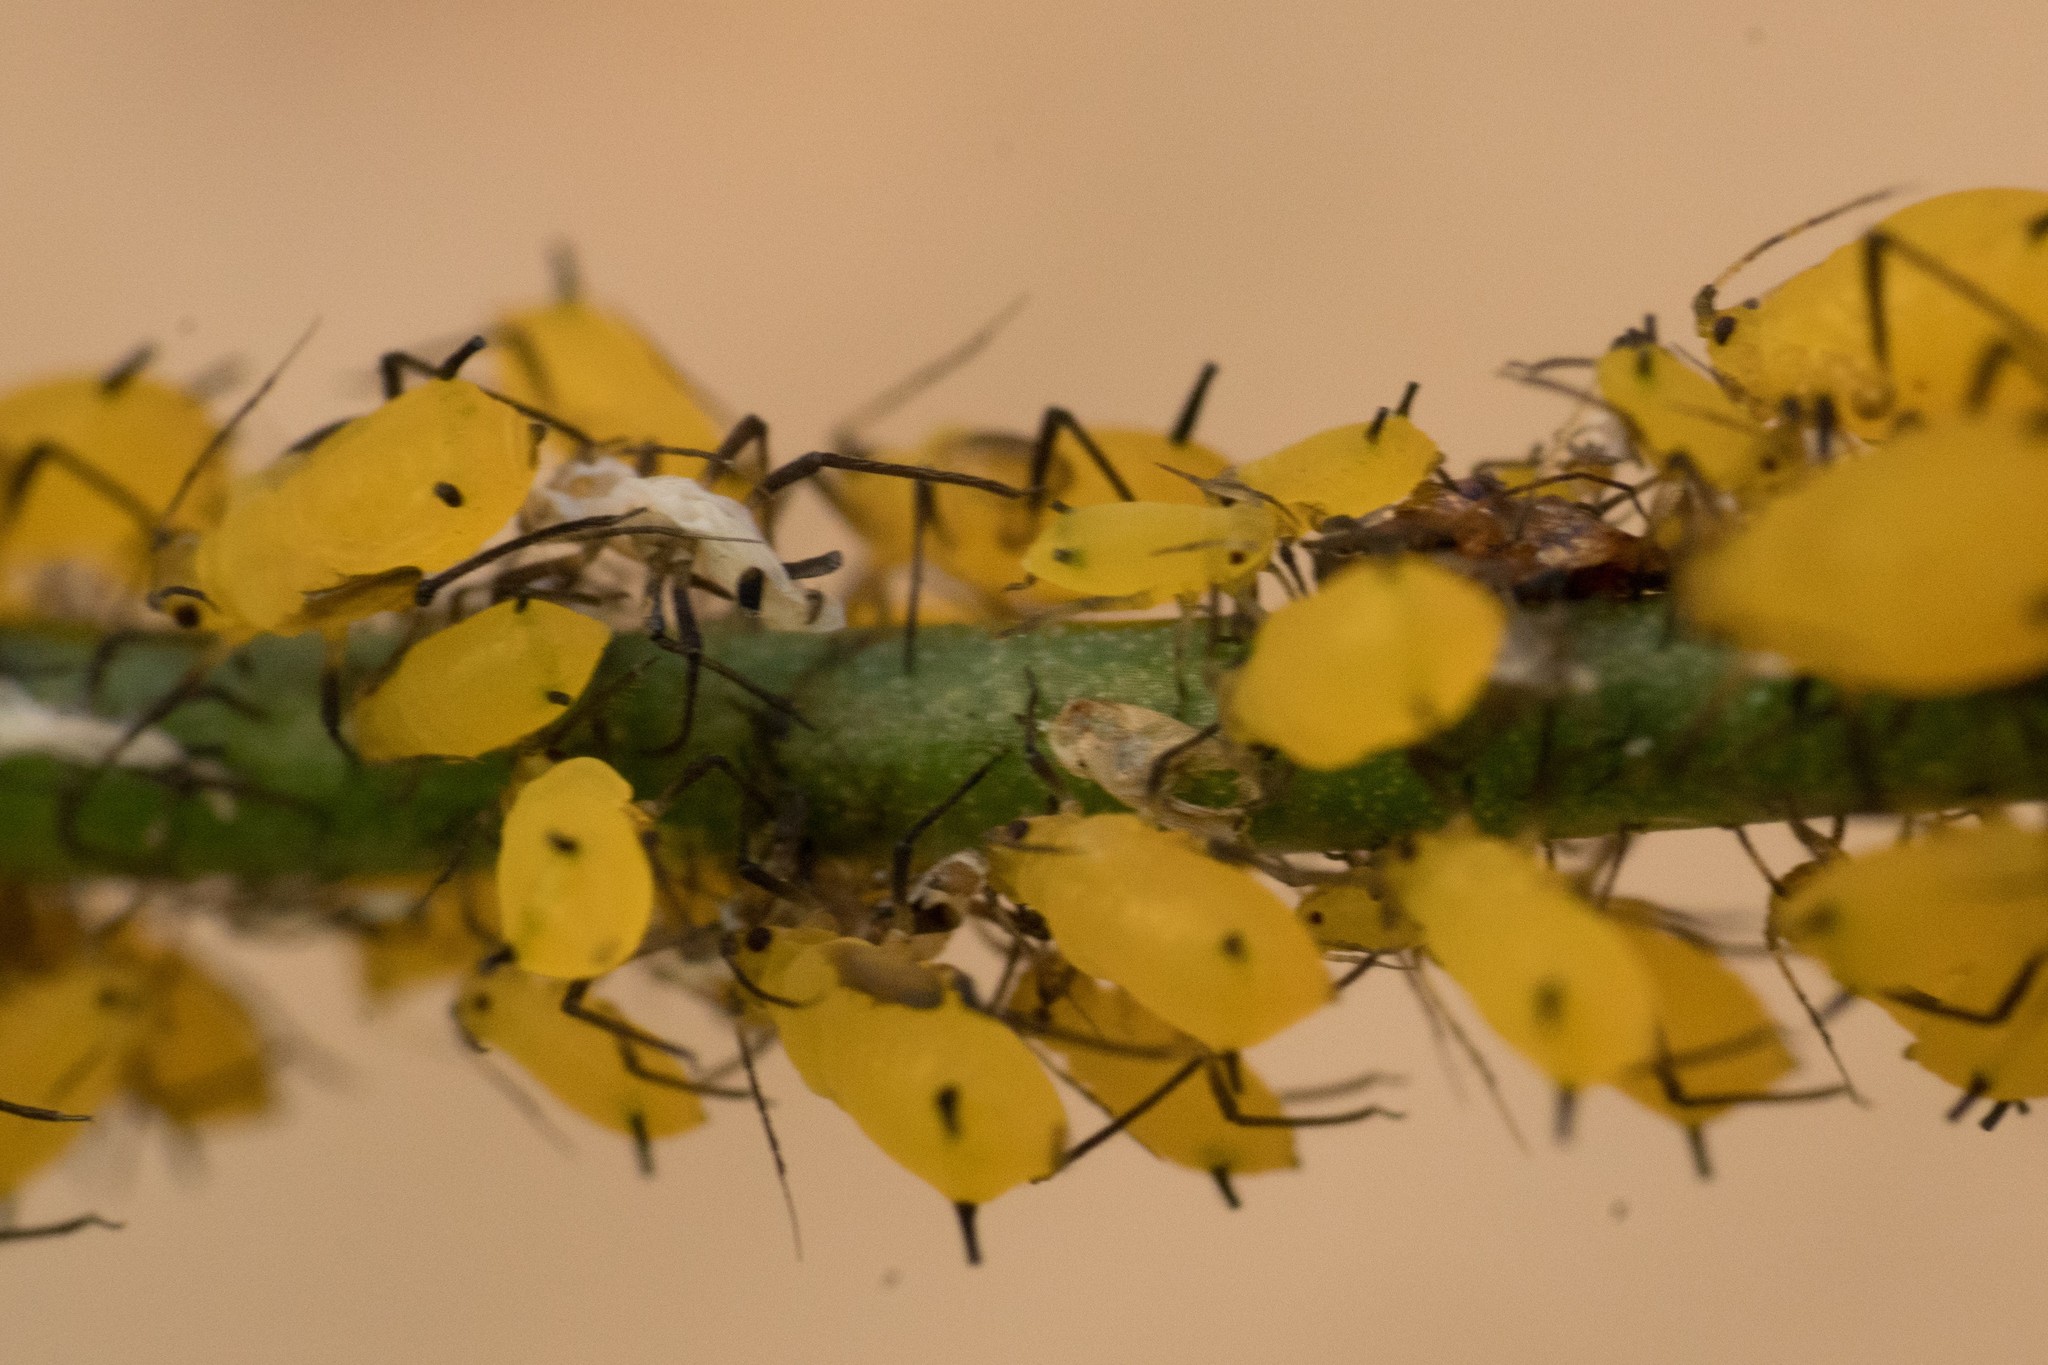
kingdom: Animalia
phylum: Arthropoda
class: Insecta
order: Hemiptera
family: Aphididae
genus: Aphis
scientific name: Aphis nerii
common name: Oleander aphid
